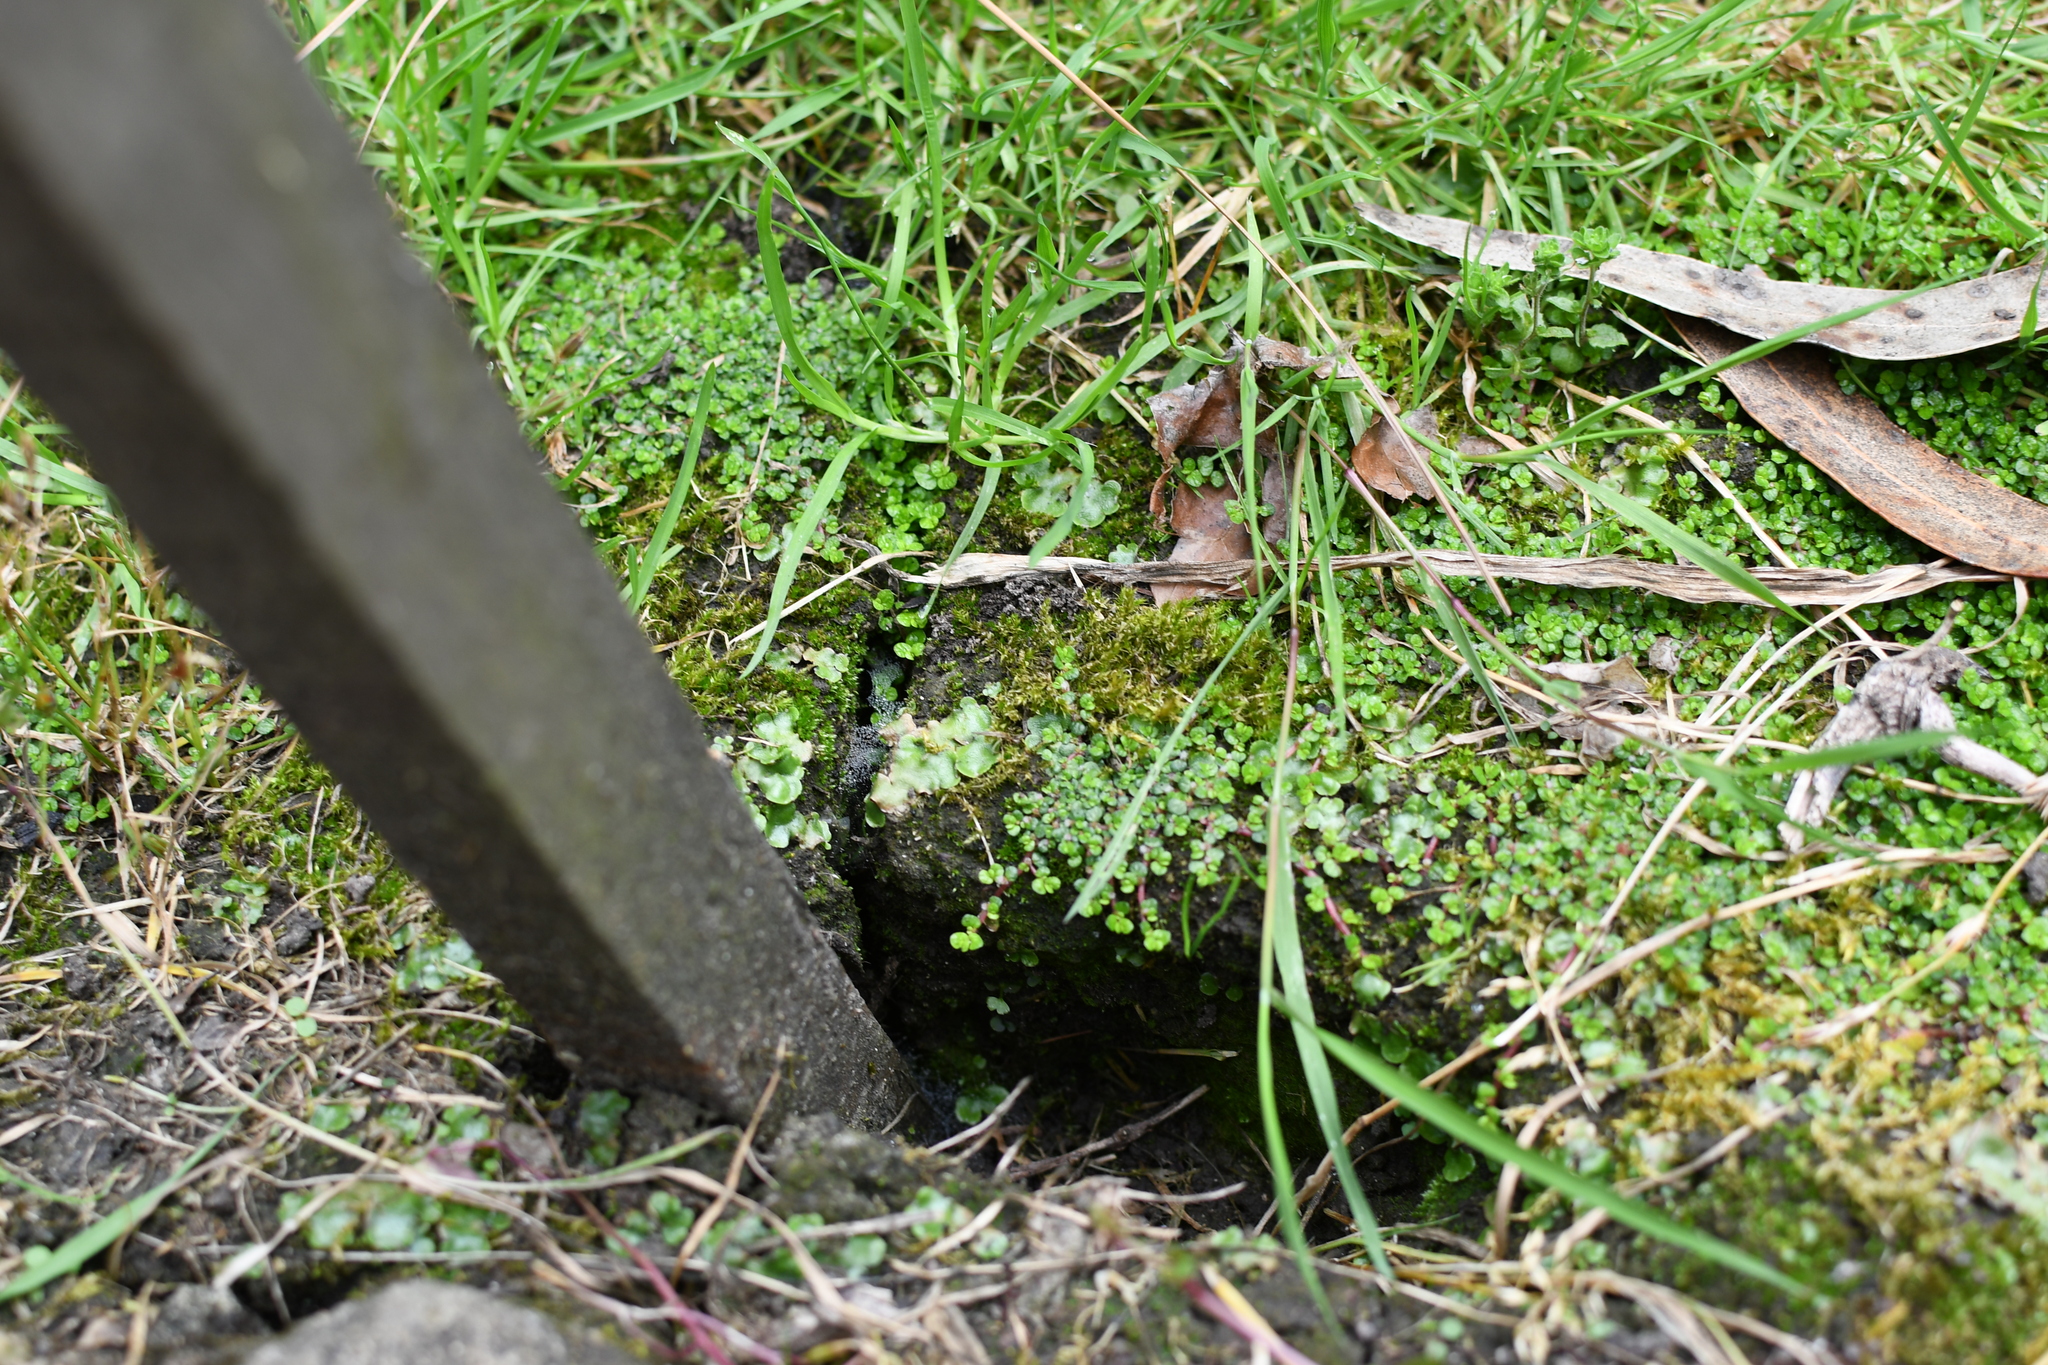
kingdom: Plantae
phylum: Marchantiophyta
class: Marchantiopsida
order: Lunulariales
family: Lunulariaceae
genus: Lunularia
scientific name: Lunularia cruciata
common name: Crescent-cup liverwort
